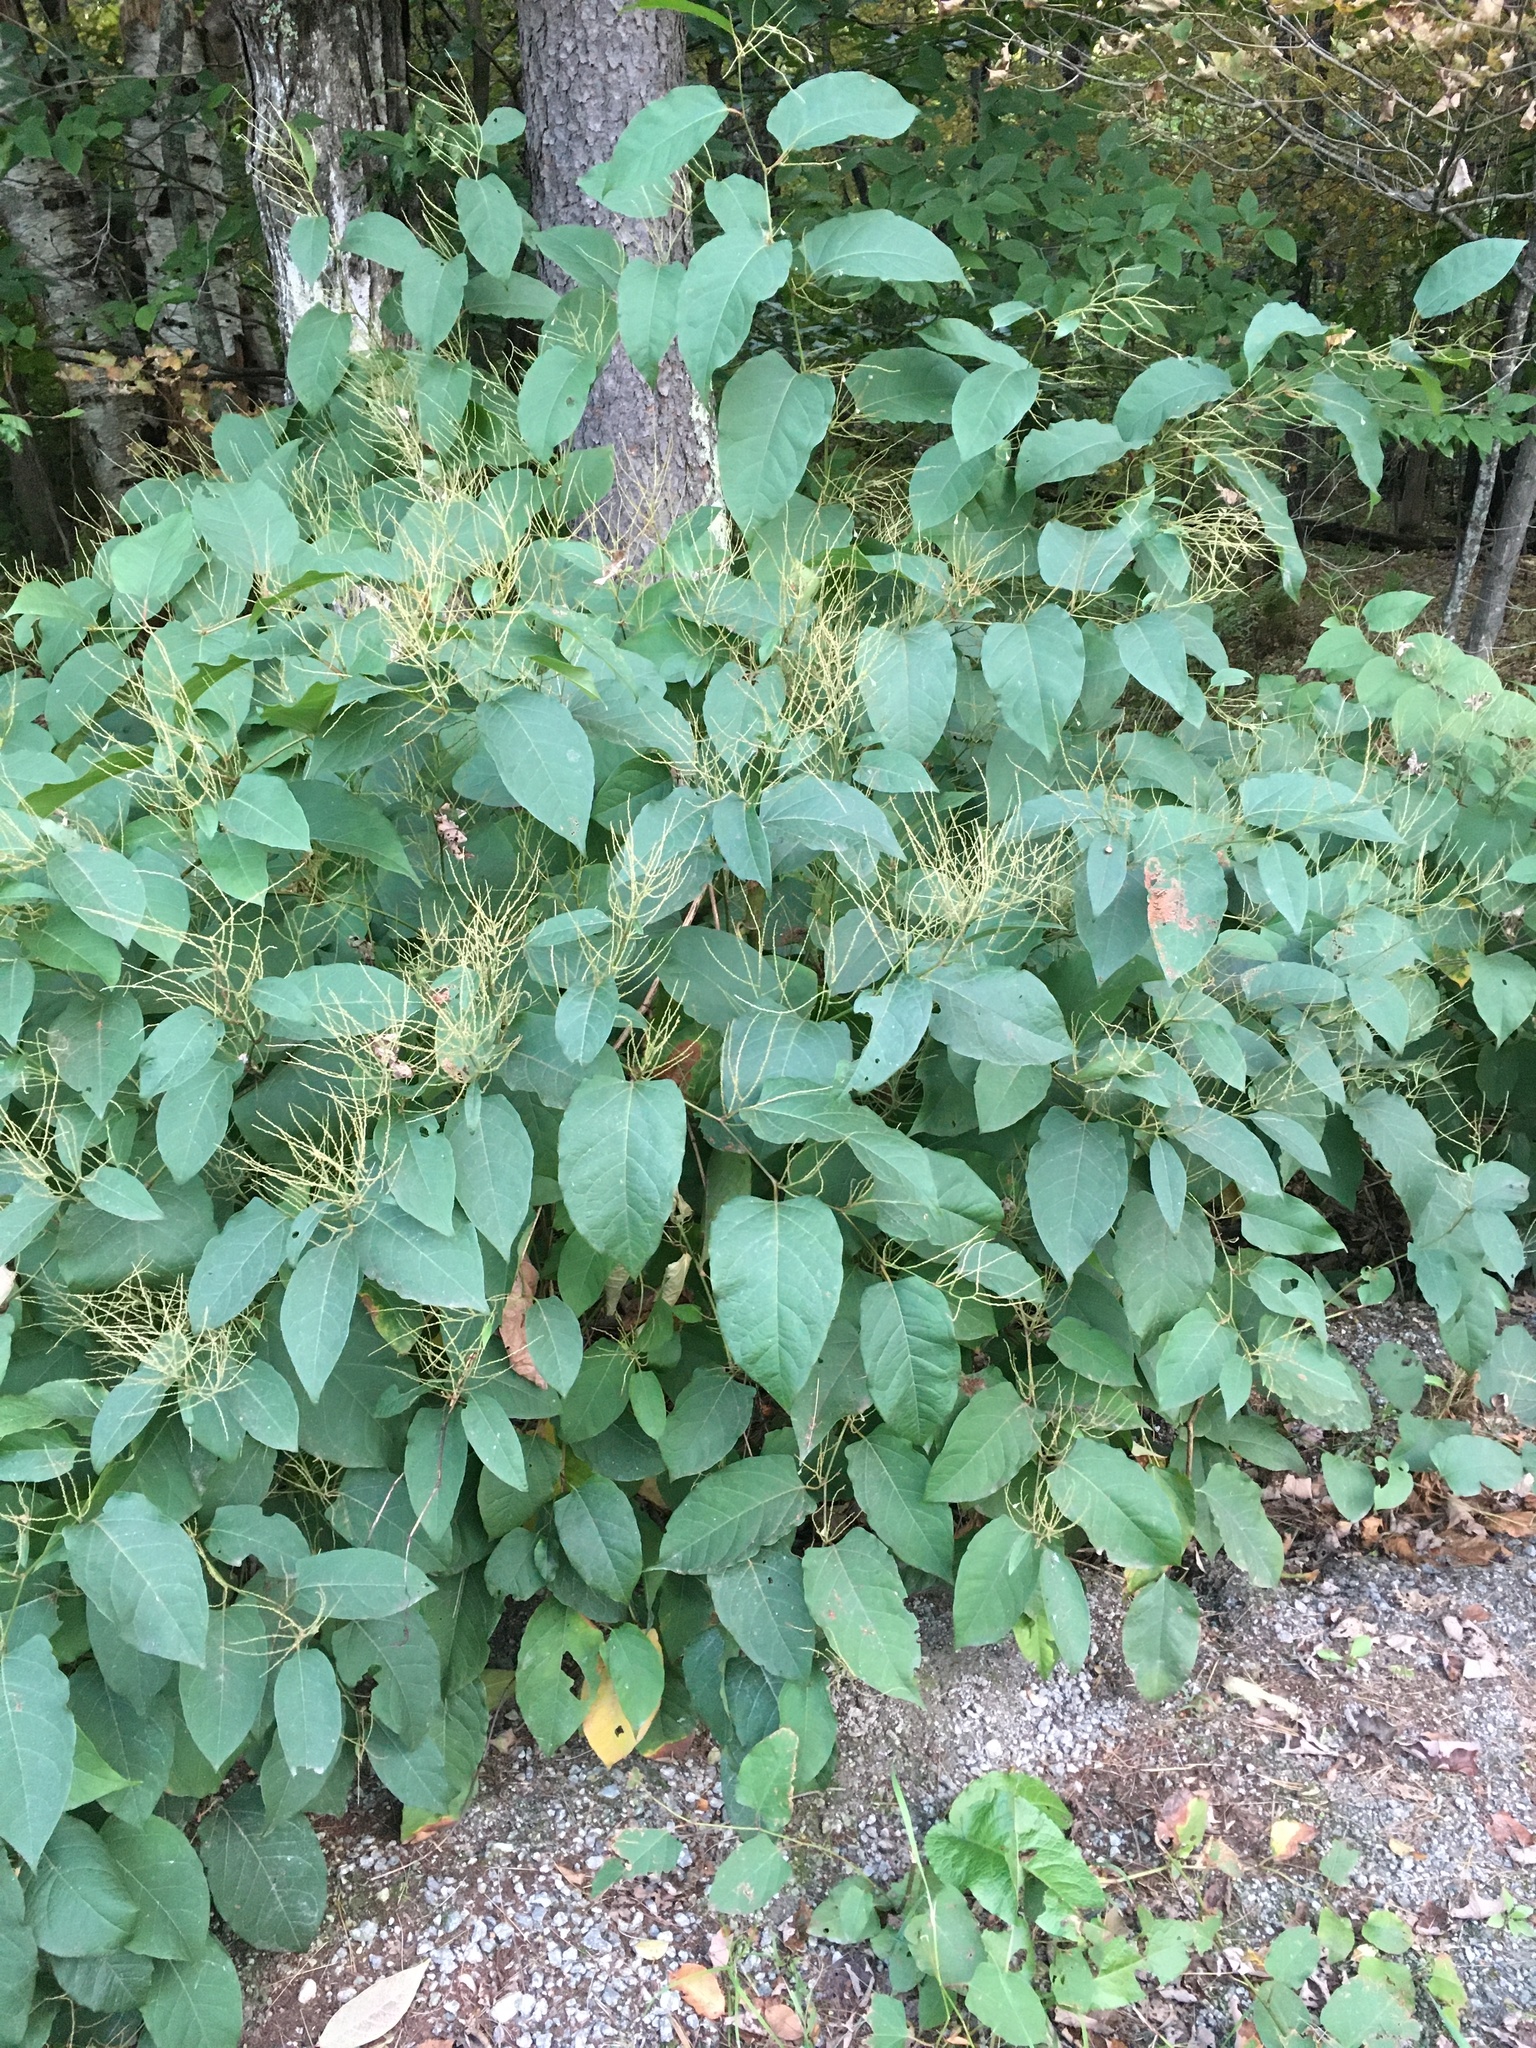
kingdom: Plantae
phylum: Tracheophyta
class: Magnoliopsida
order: Caryophyllales
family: Polygonaceae
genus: Reynoutria
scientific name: Reynoutria japonica
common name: Japanese knotweed
